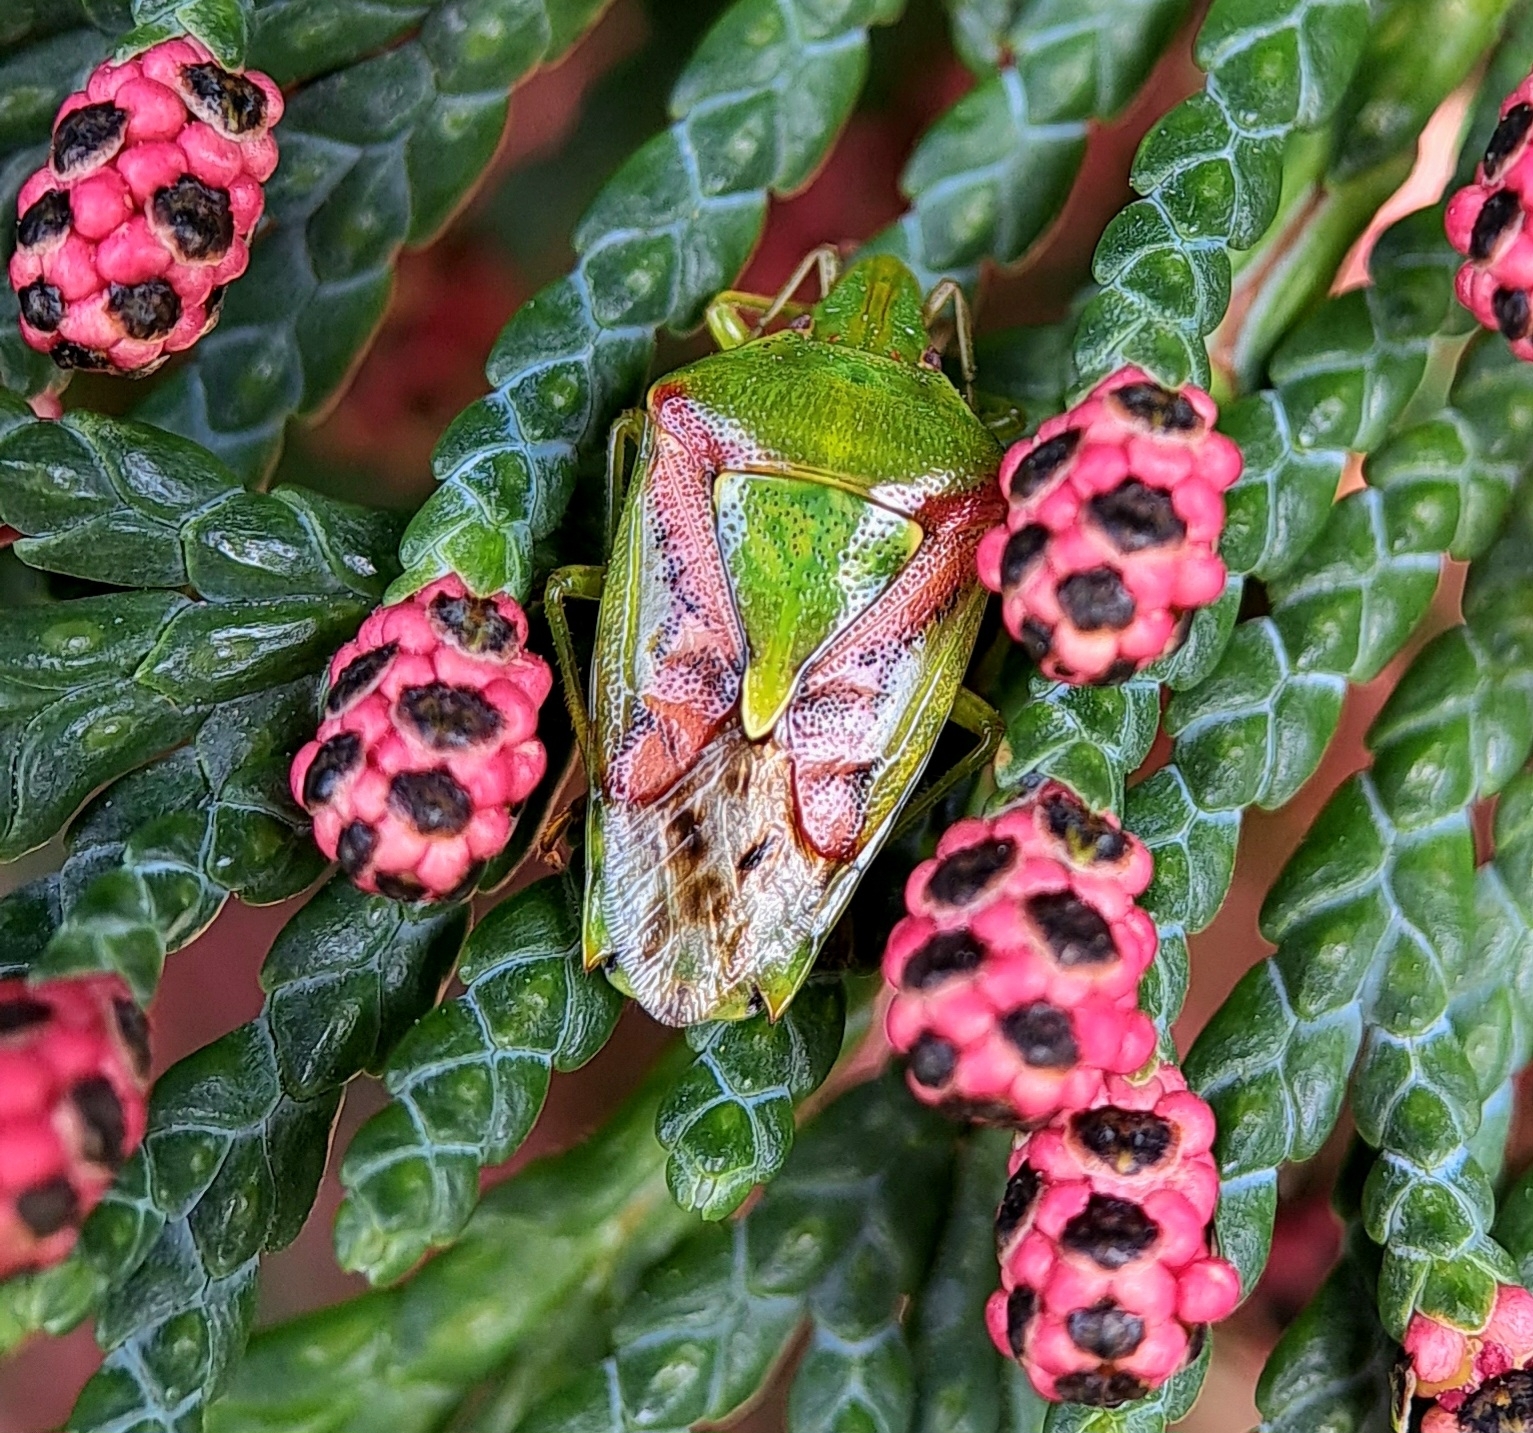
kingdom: Animalia
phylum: Arthropoda
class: Insecta
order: Hemiptera
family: Acanthosomatidae
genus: Cyphostethus
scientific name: Cyphostethus tristriatus
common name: Juniper shieldbug
